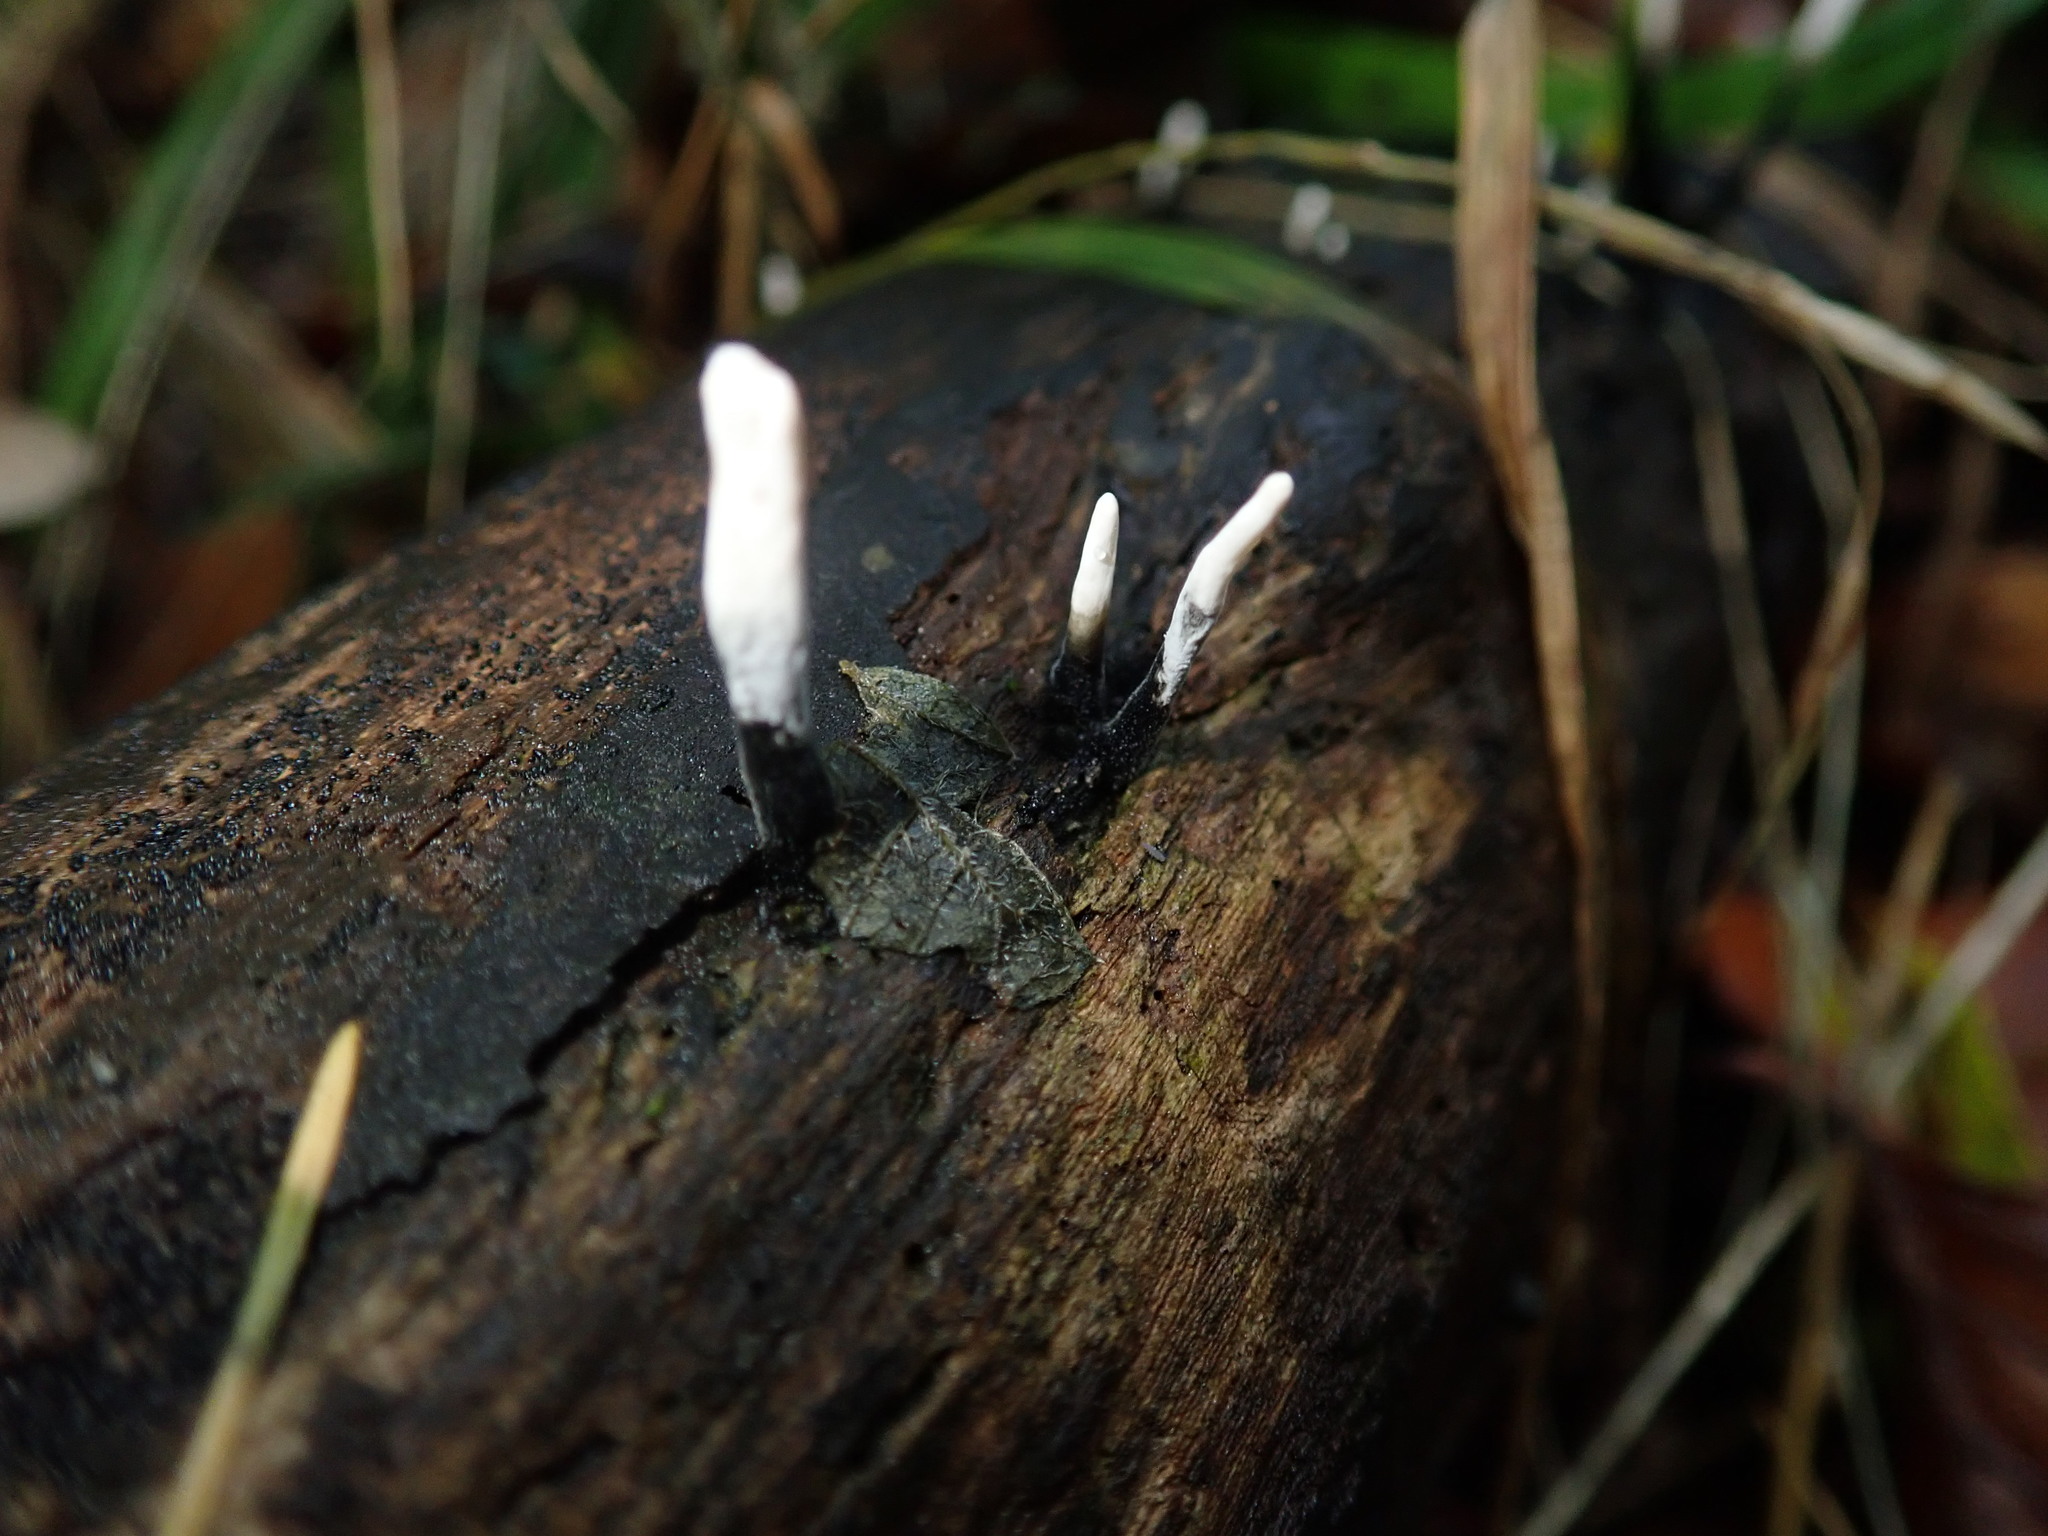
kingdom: Fungi
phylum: Ascomycota
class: Sordariomycetes
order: Xylariales
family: Xylariaceae
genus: Xylaria
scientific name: Xylaria hypoxylon
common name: Candle-snuff fungus
